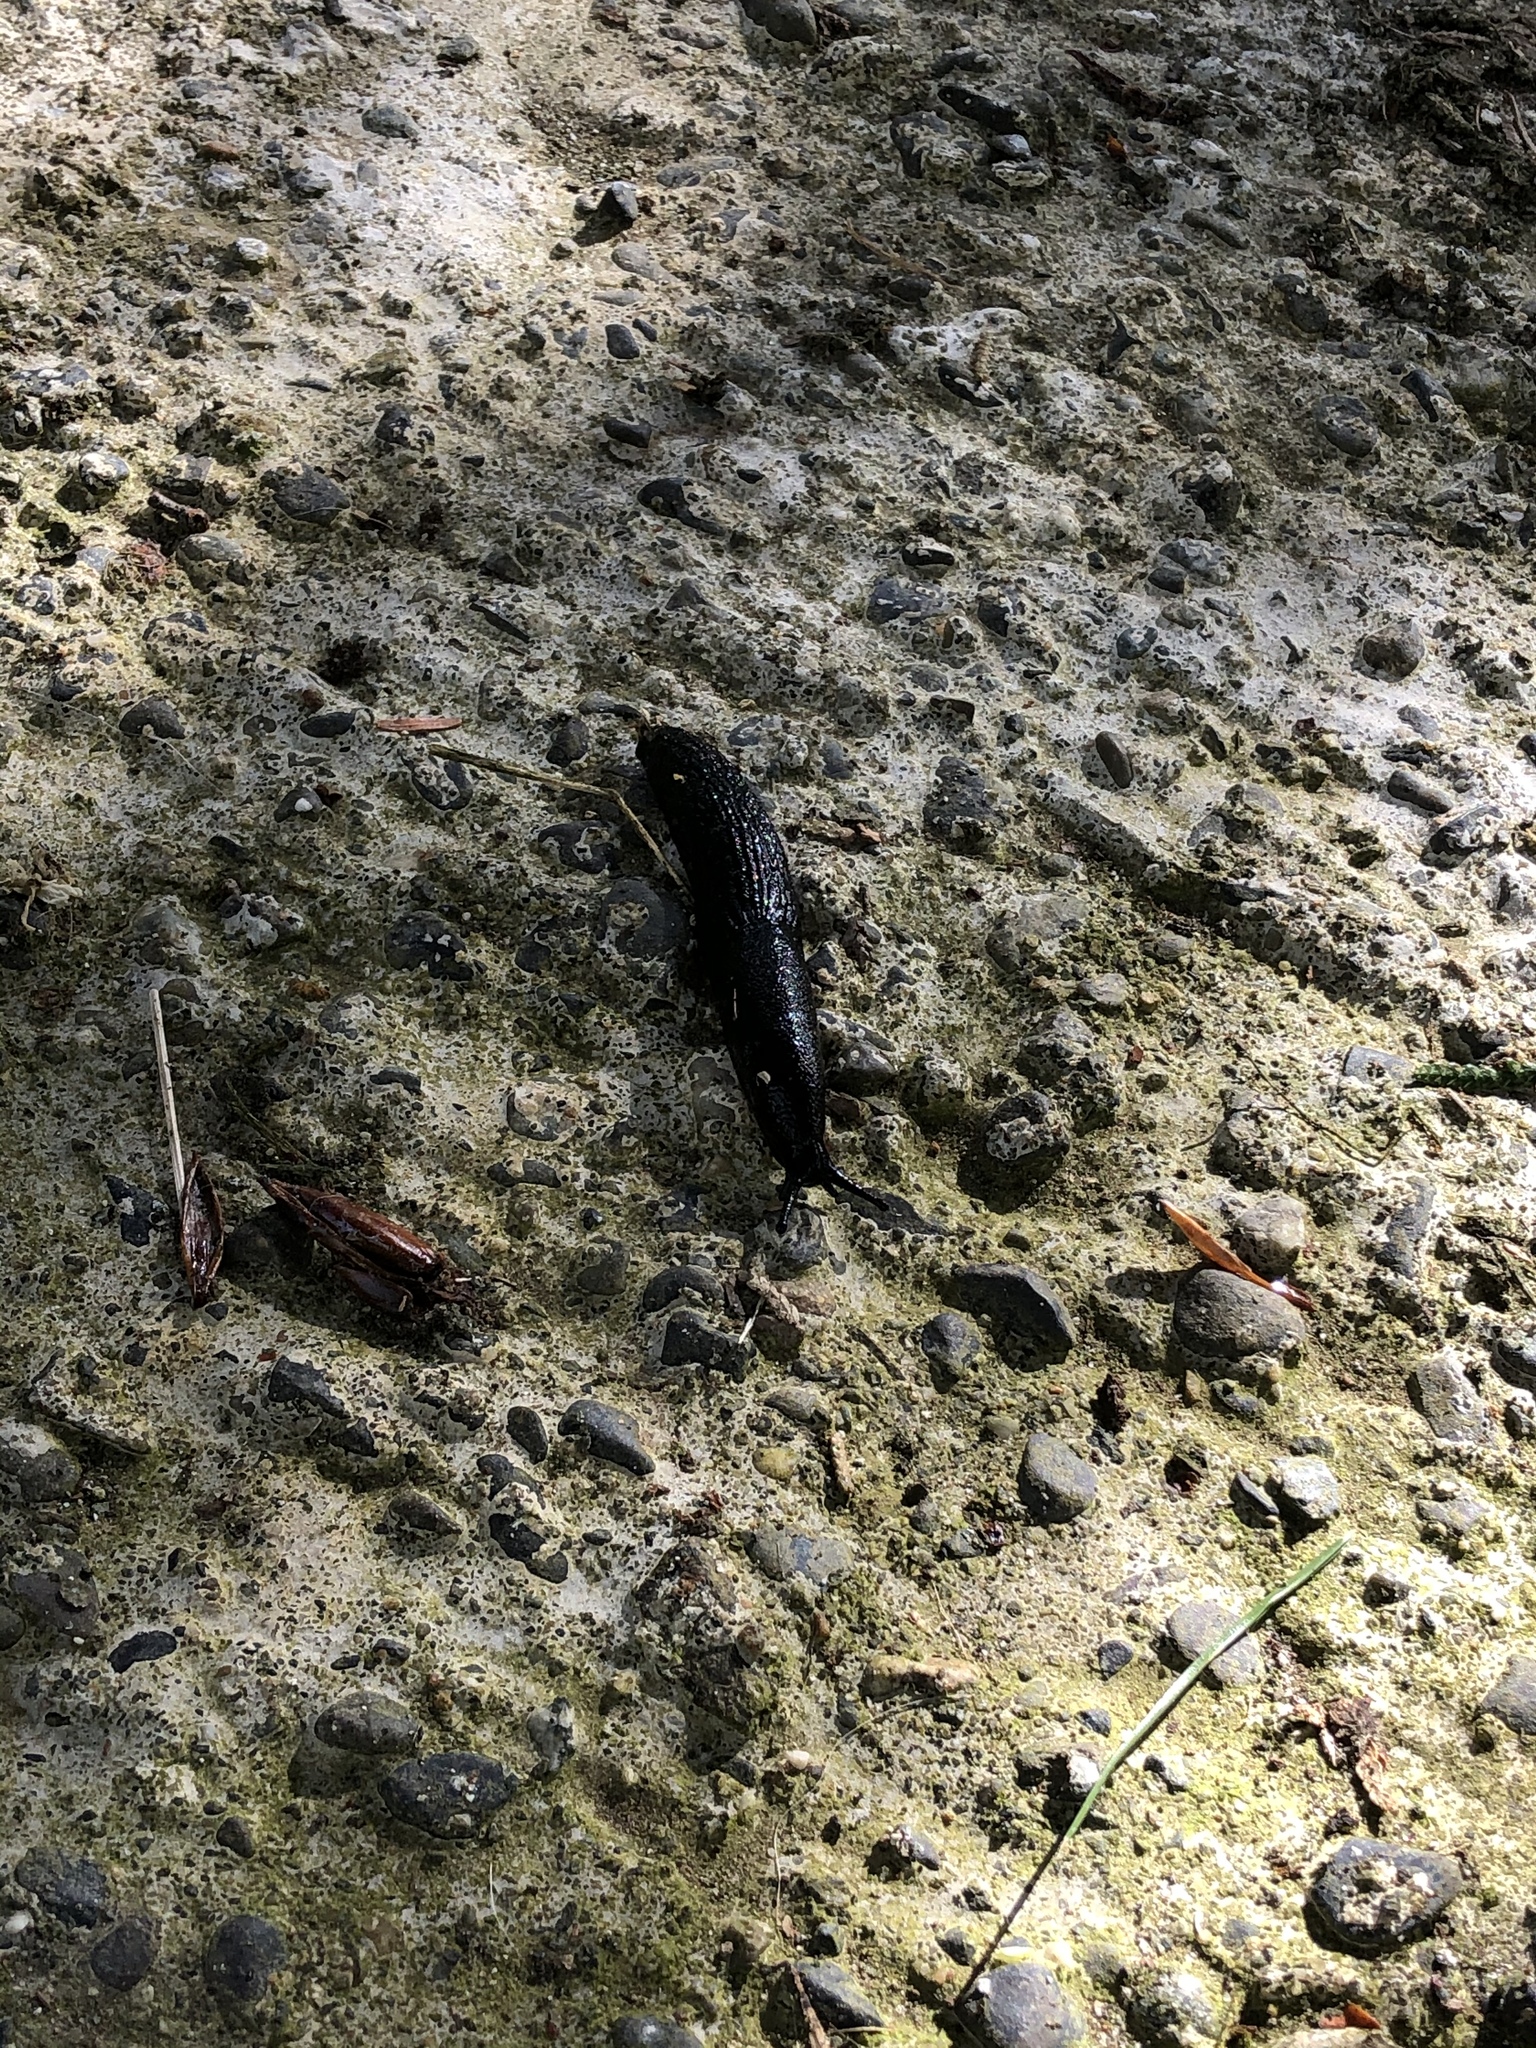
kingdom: Animalia
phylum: Mollusca
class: Gastropoda
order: Stylommatophora
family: Arionidae
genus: Arion
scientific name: Arion rufus
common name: Chocolate arion
